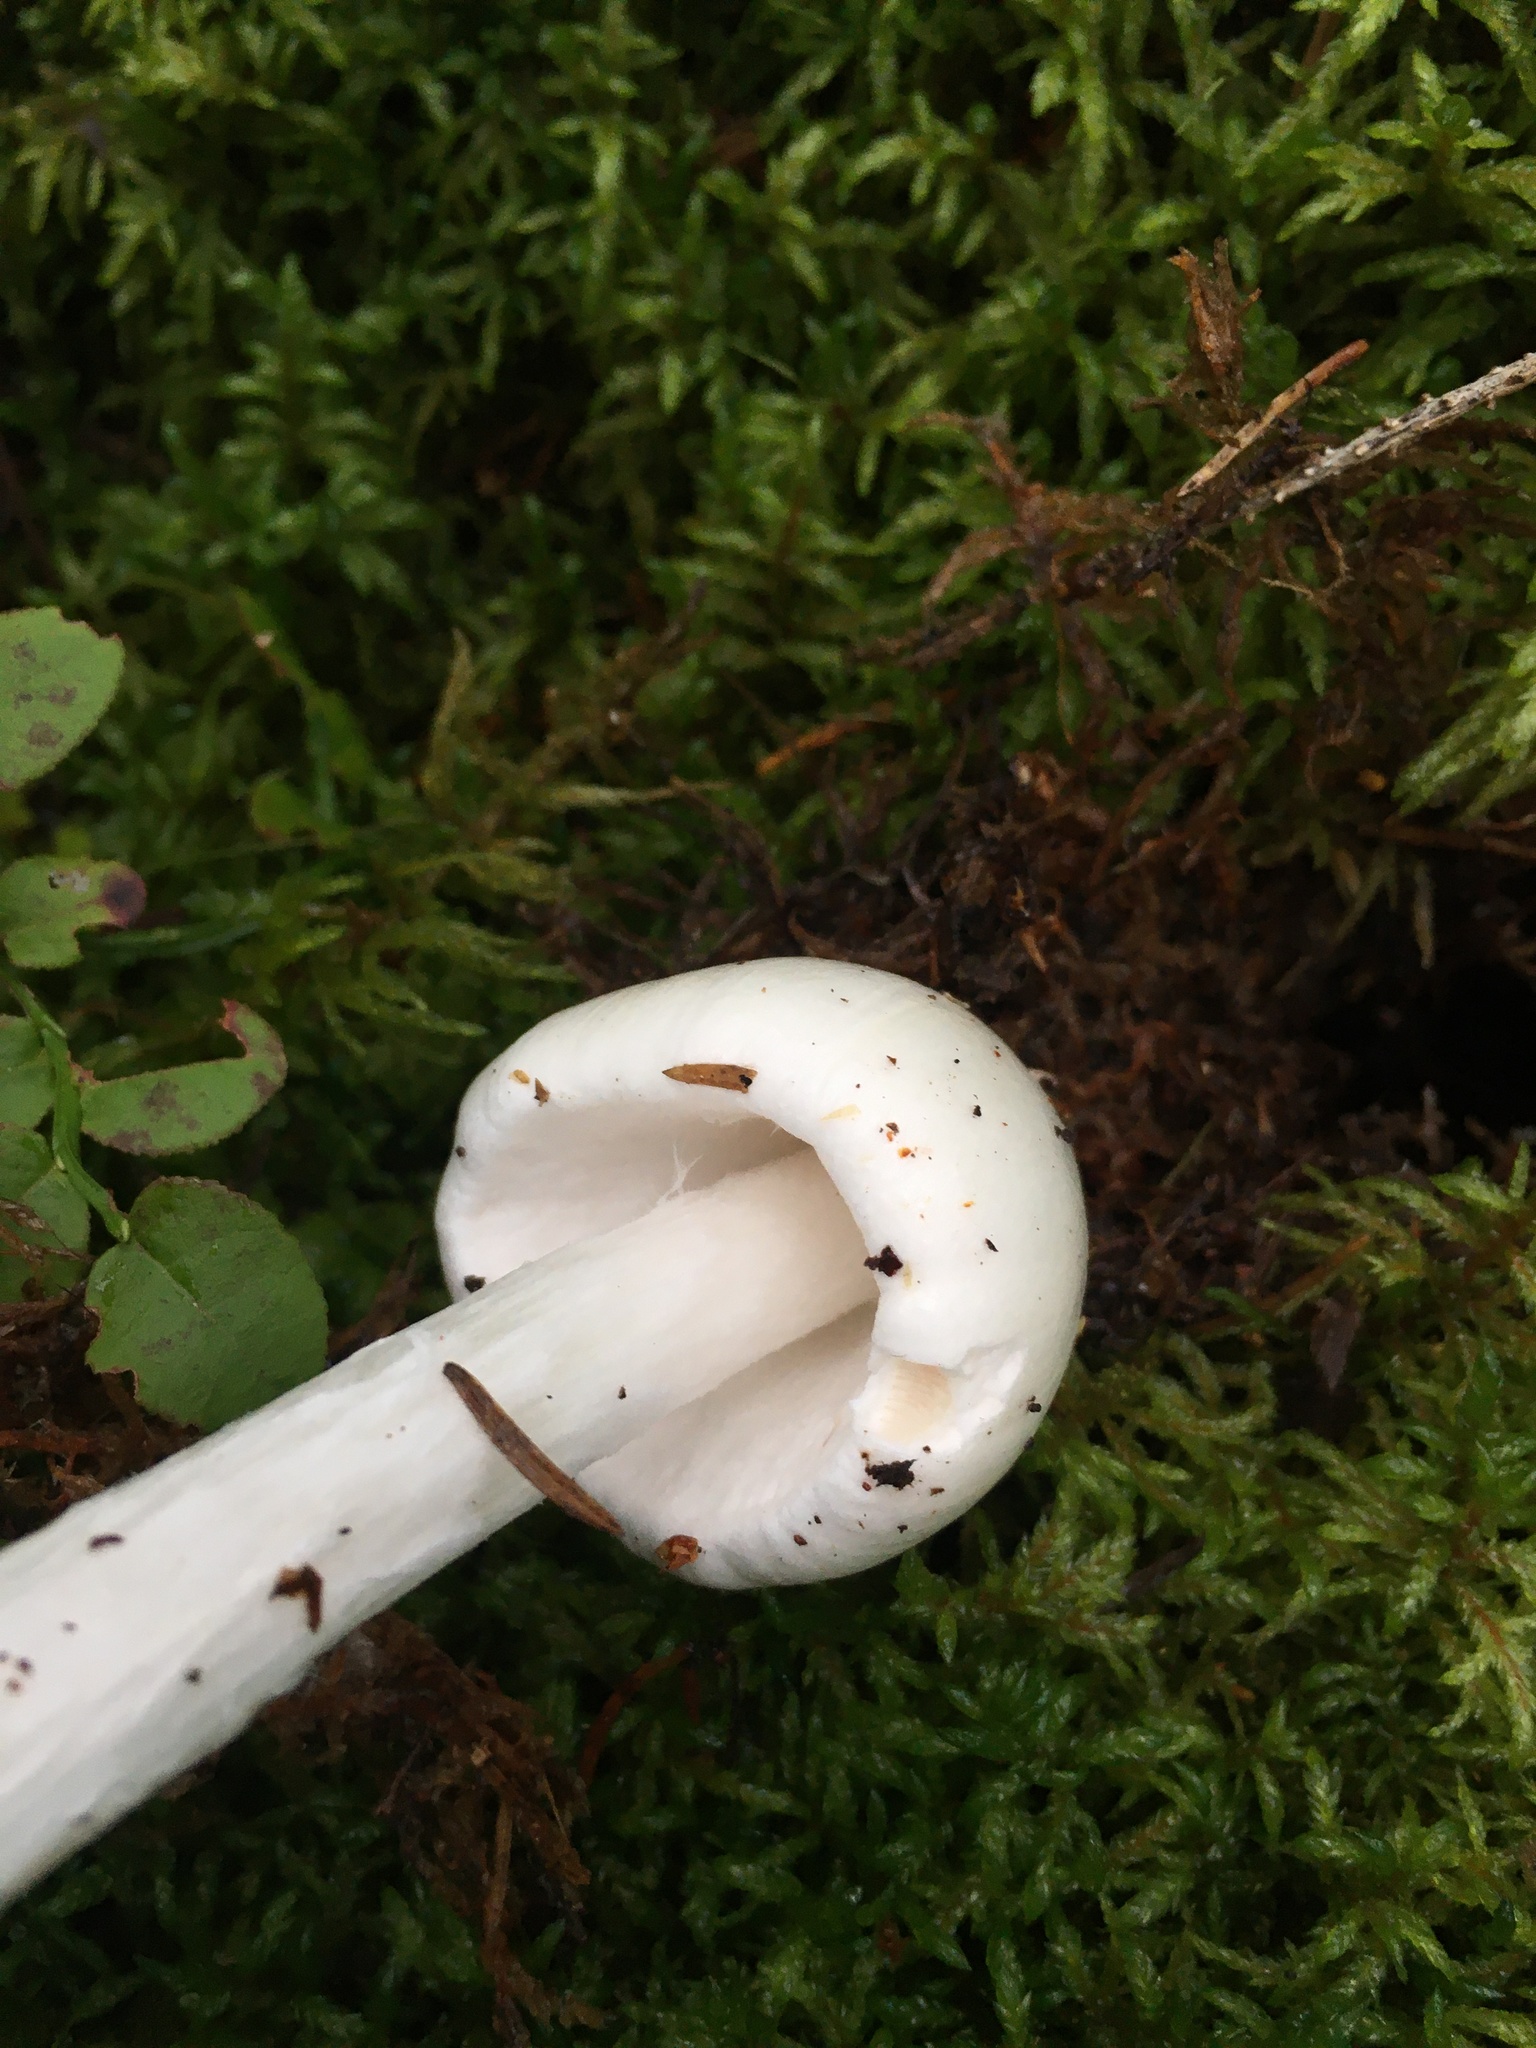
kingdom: Fungi
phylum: Basidiomycota
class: Agaricomycetes
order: Agaricales
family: Amanitaceae
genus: Amanita
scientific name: Amanita virosa
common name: Destroying angel
